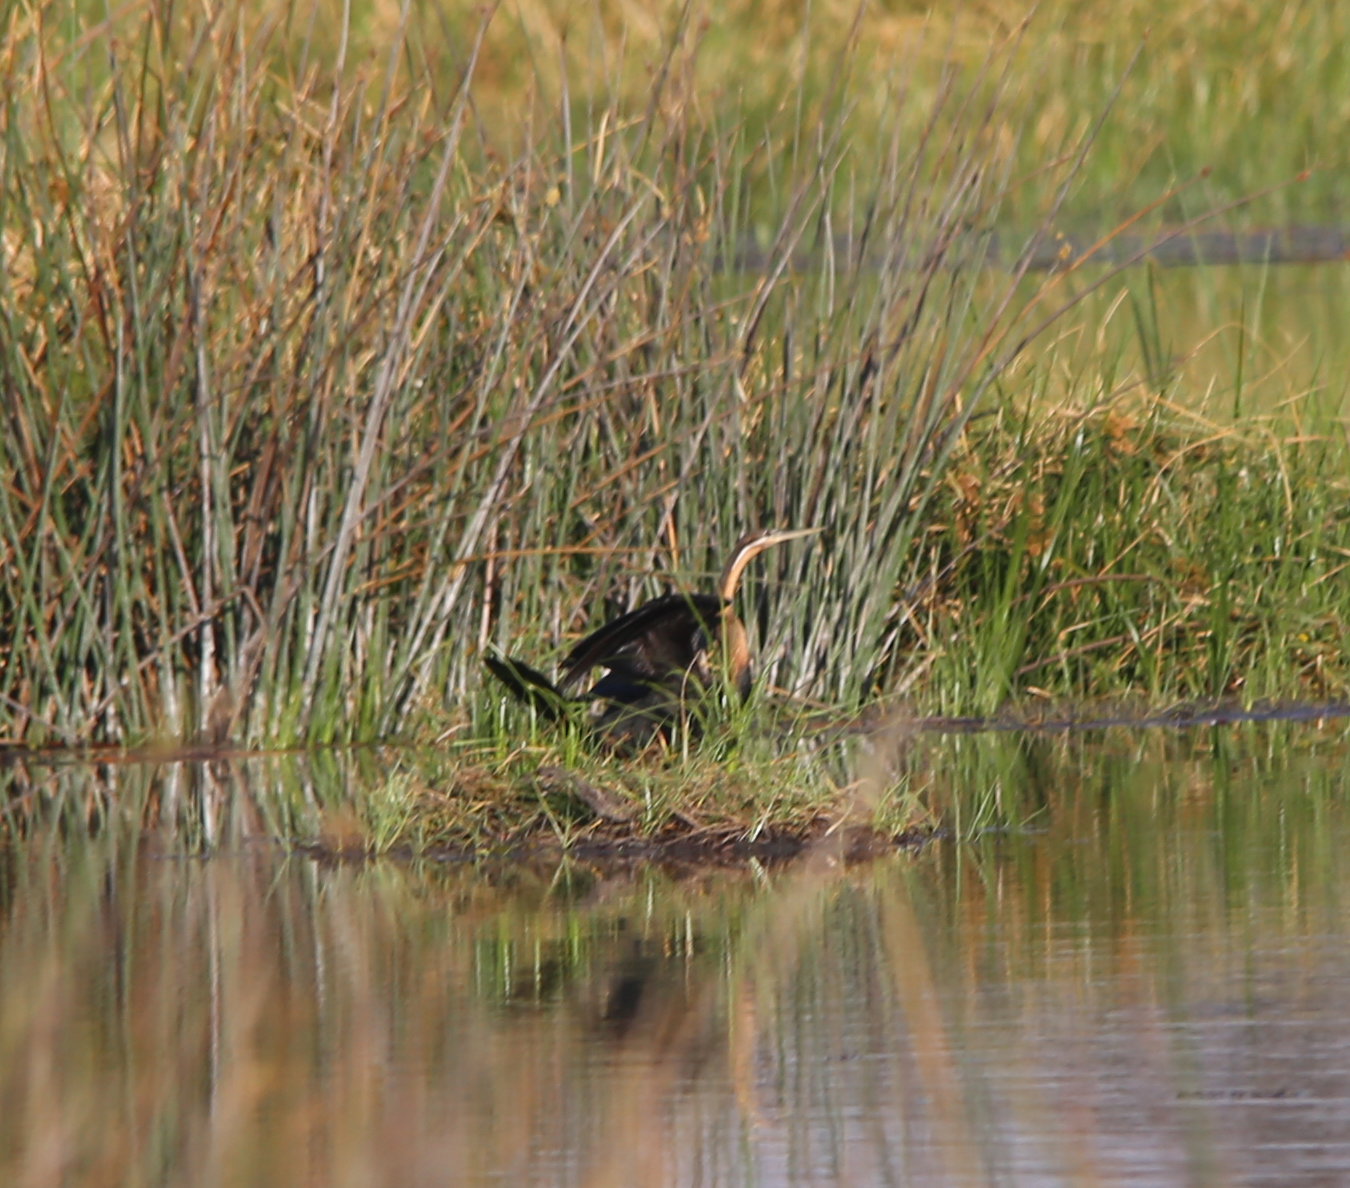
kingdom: Animalia
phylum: Chordata
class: Aves
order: Suliformes
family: Anhingidae
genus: Anhinga
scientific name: Anhinga rufa
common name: African darter
